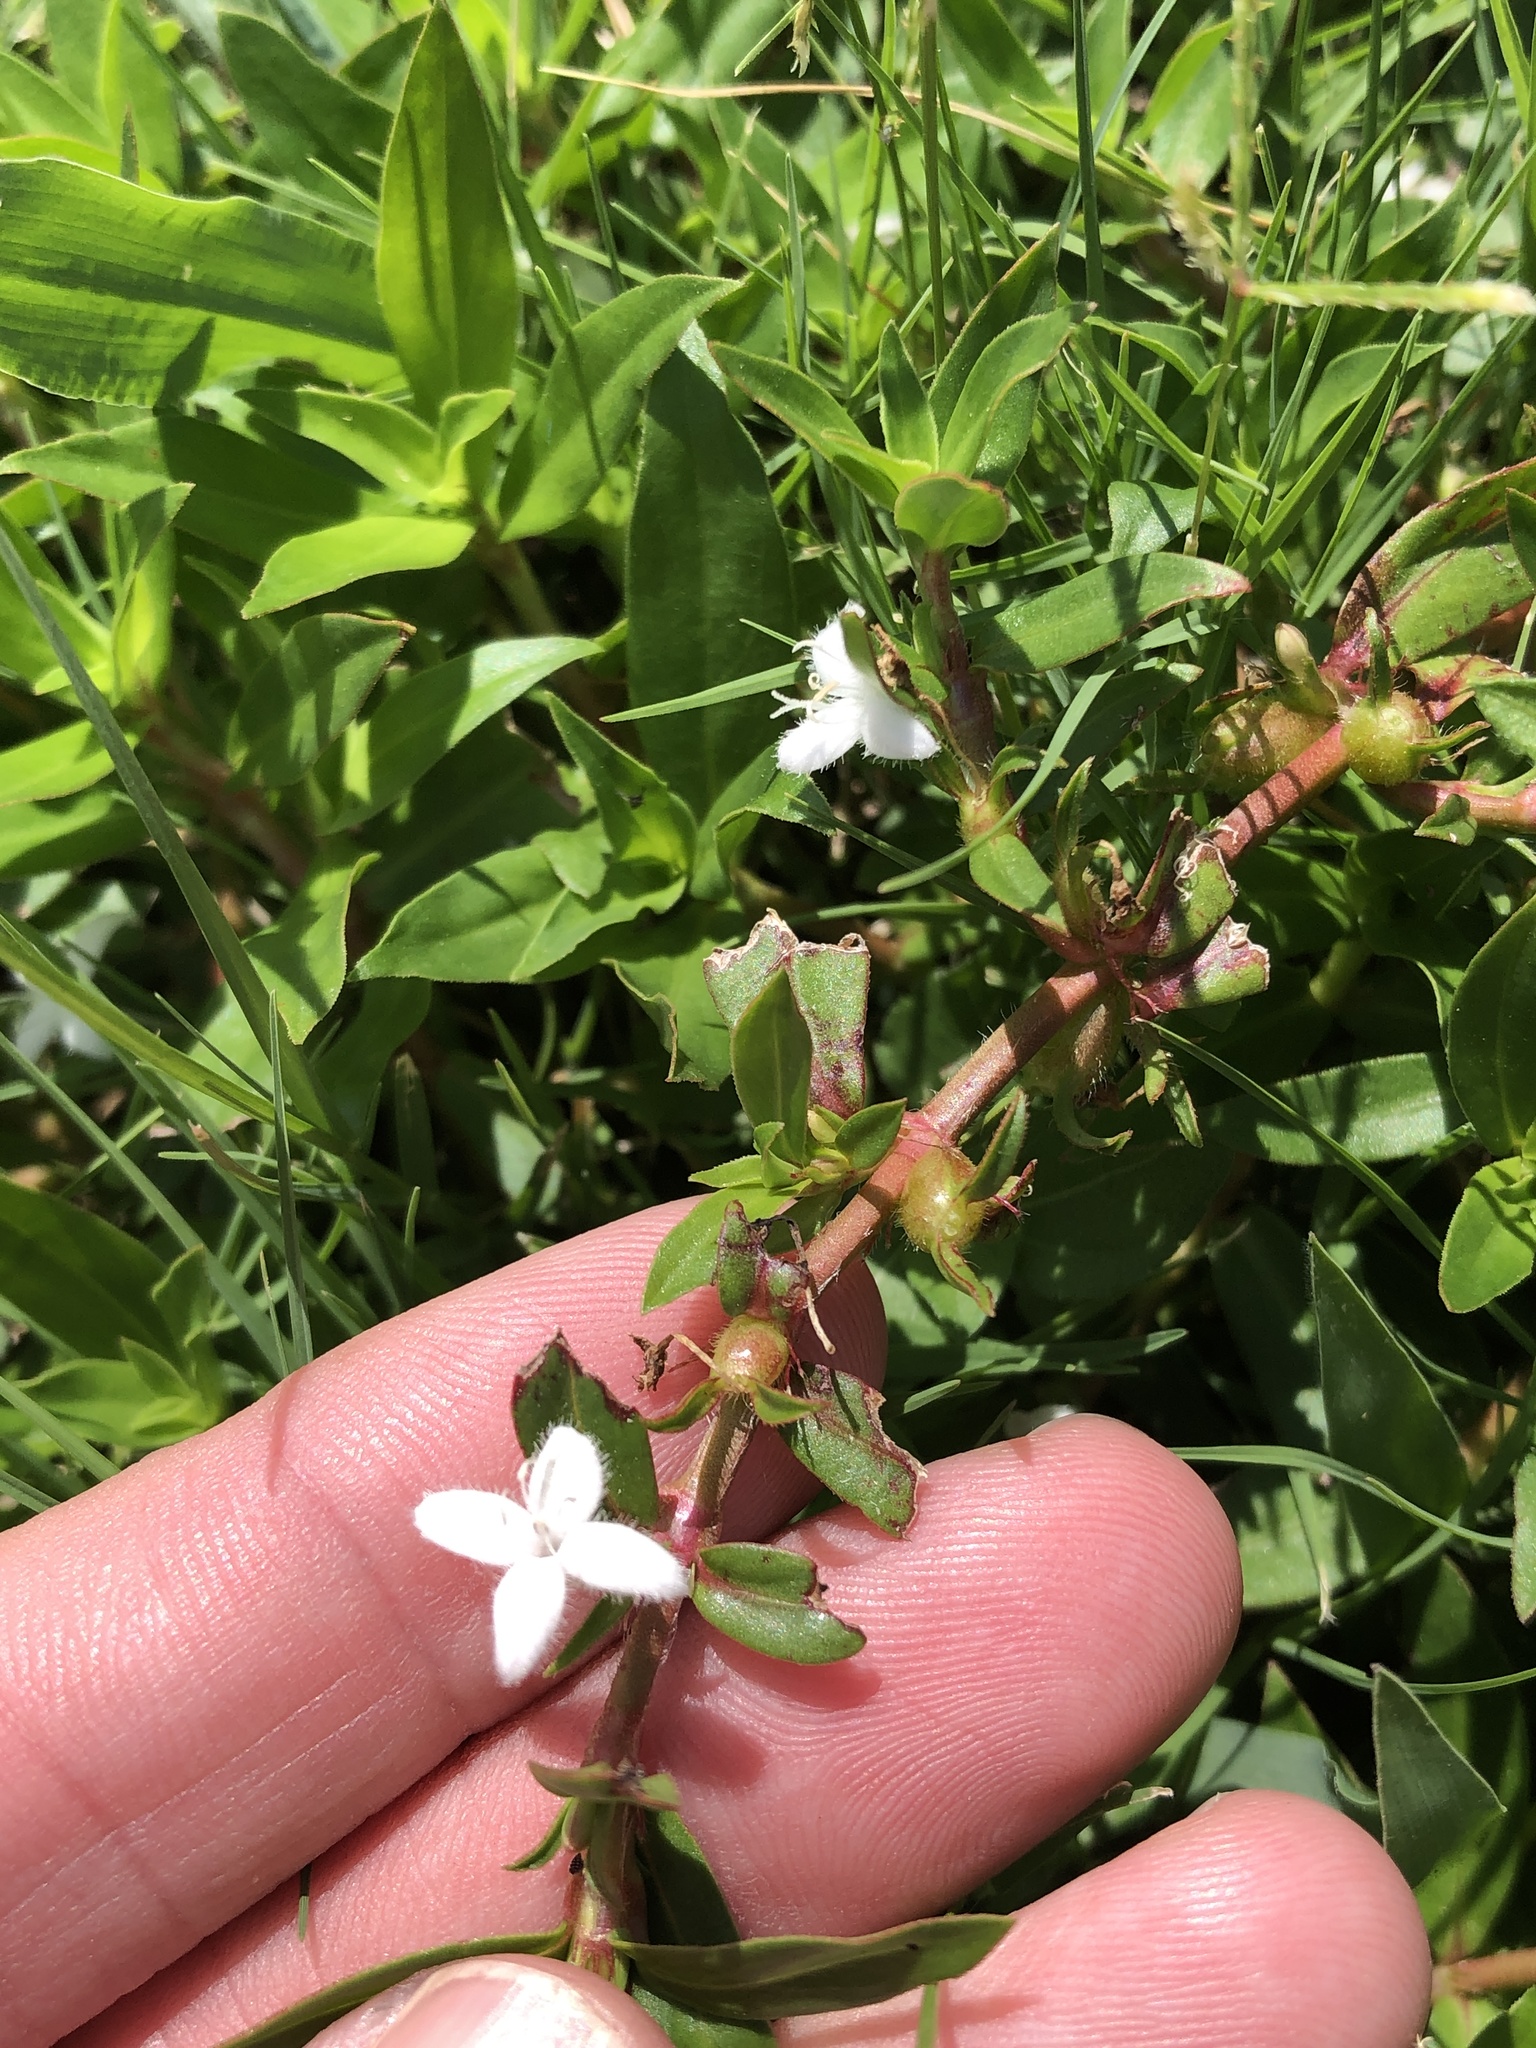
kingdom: Plantae
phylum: Tracheophyta
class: Magnoliopsida
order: Gentianales
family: Rubiaceae
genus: Diodia
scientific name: Diodia virginiana
